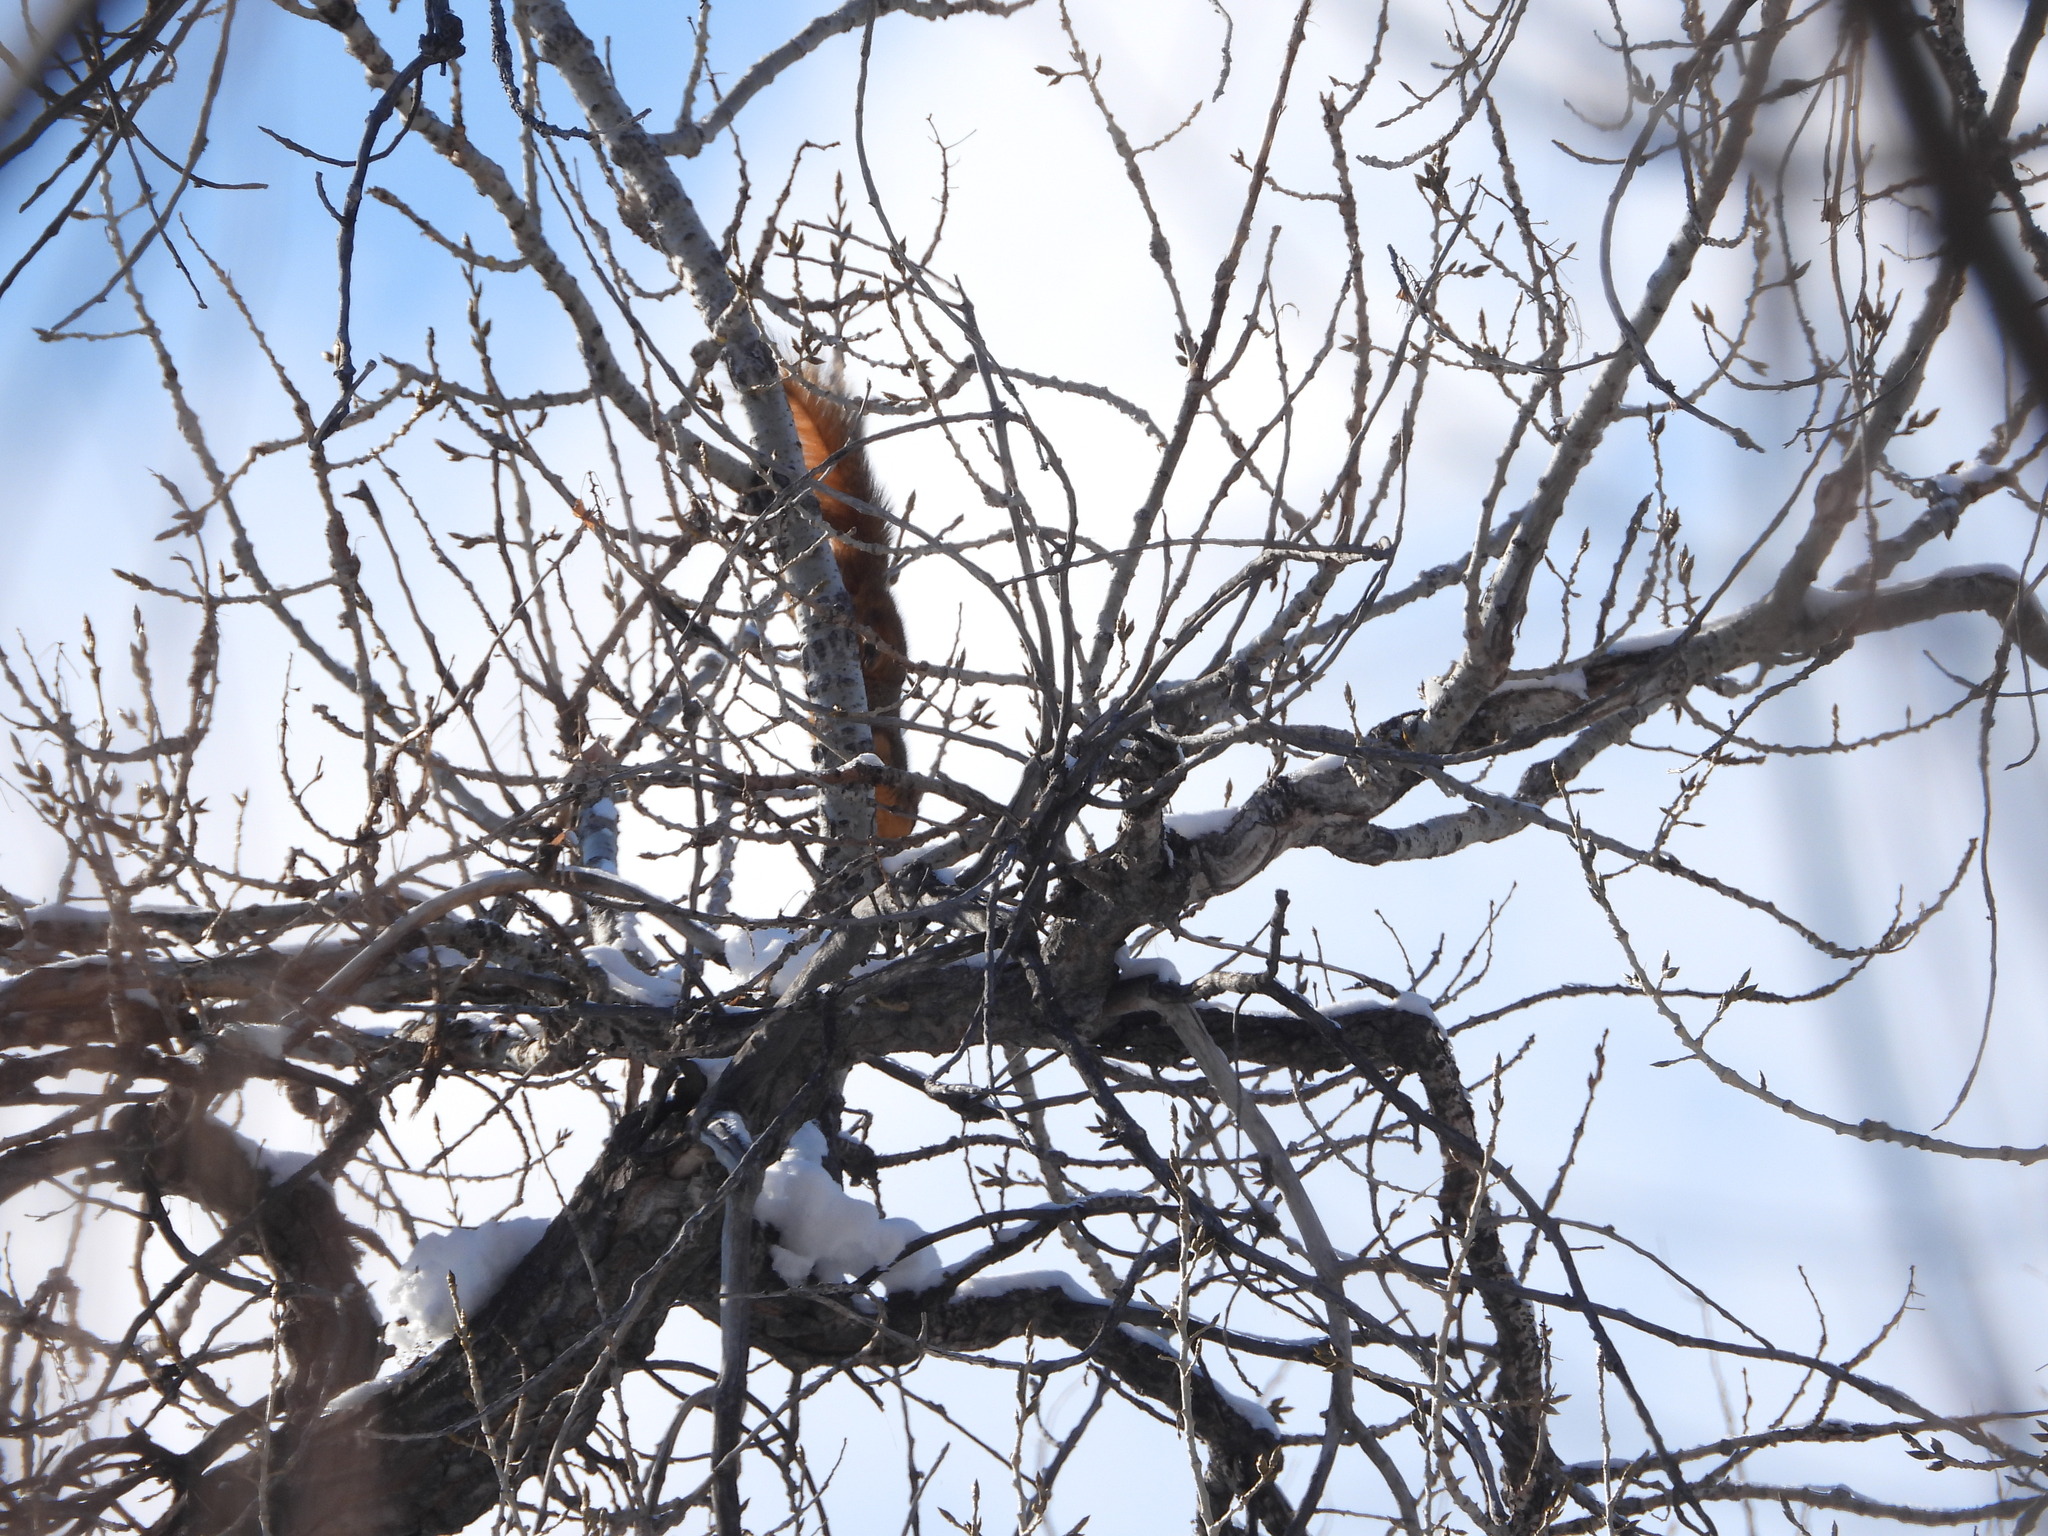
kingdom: Animalia
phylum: Chordata
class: Mammalia
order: Rodentia
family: Sciuridae
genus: Sciurus
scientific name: Sciurus niger
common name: Fox squirrel
